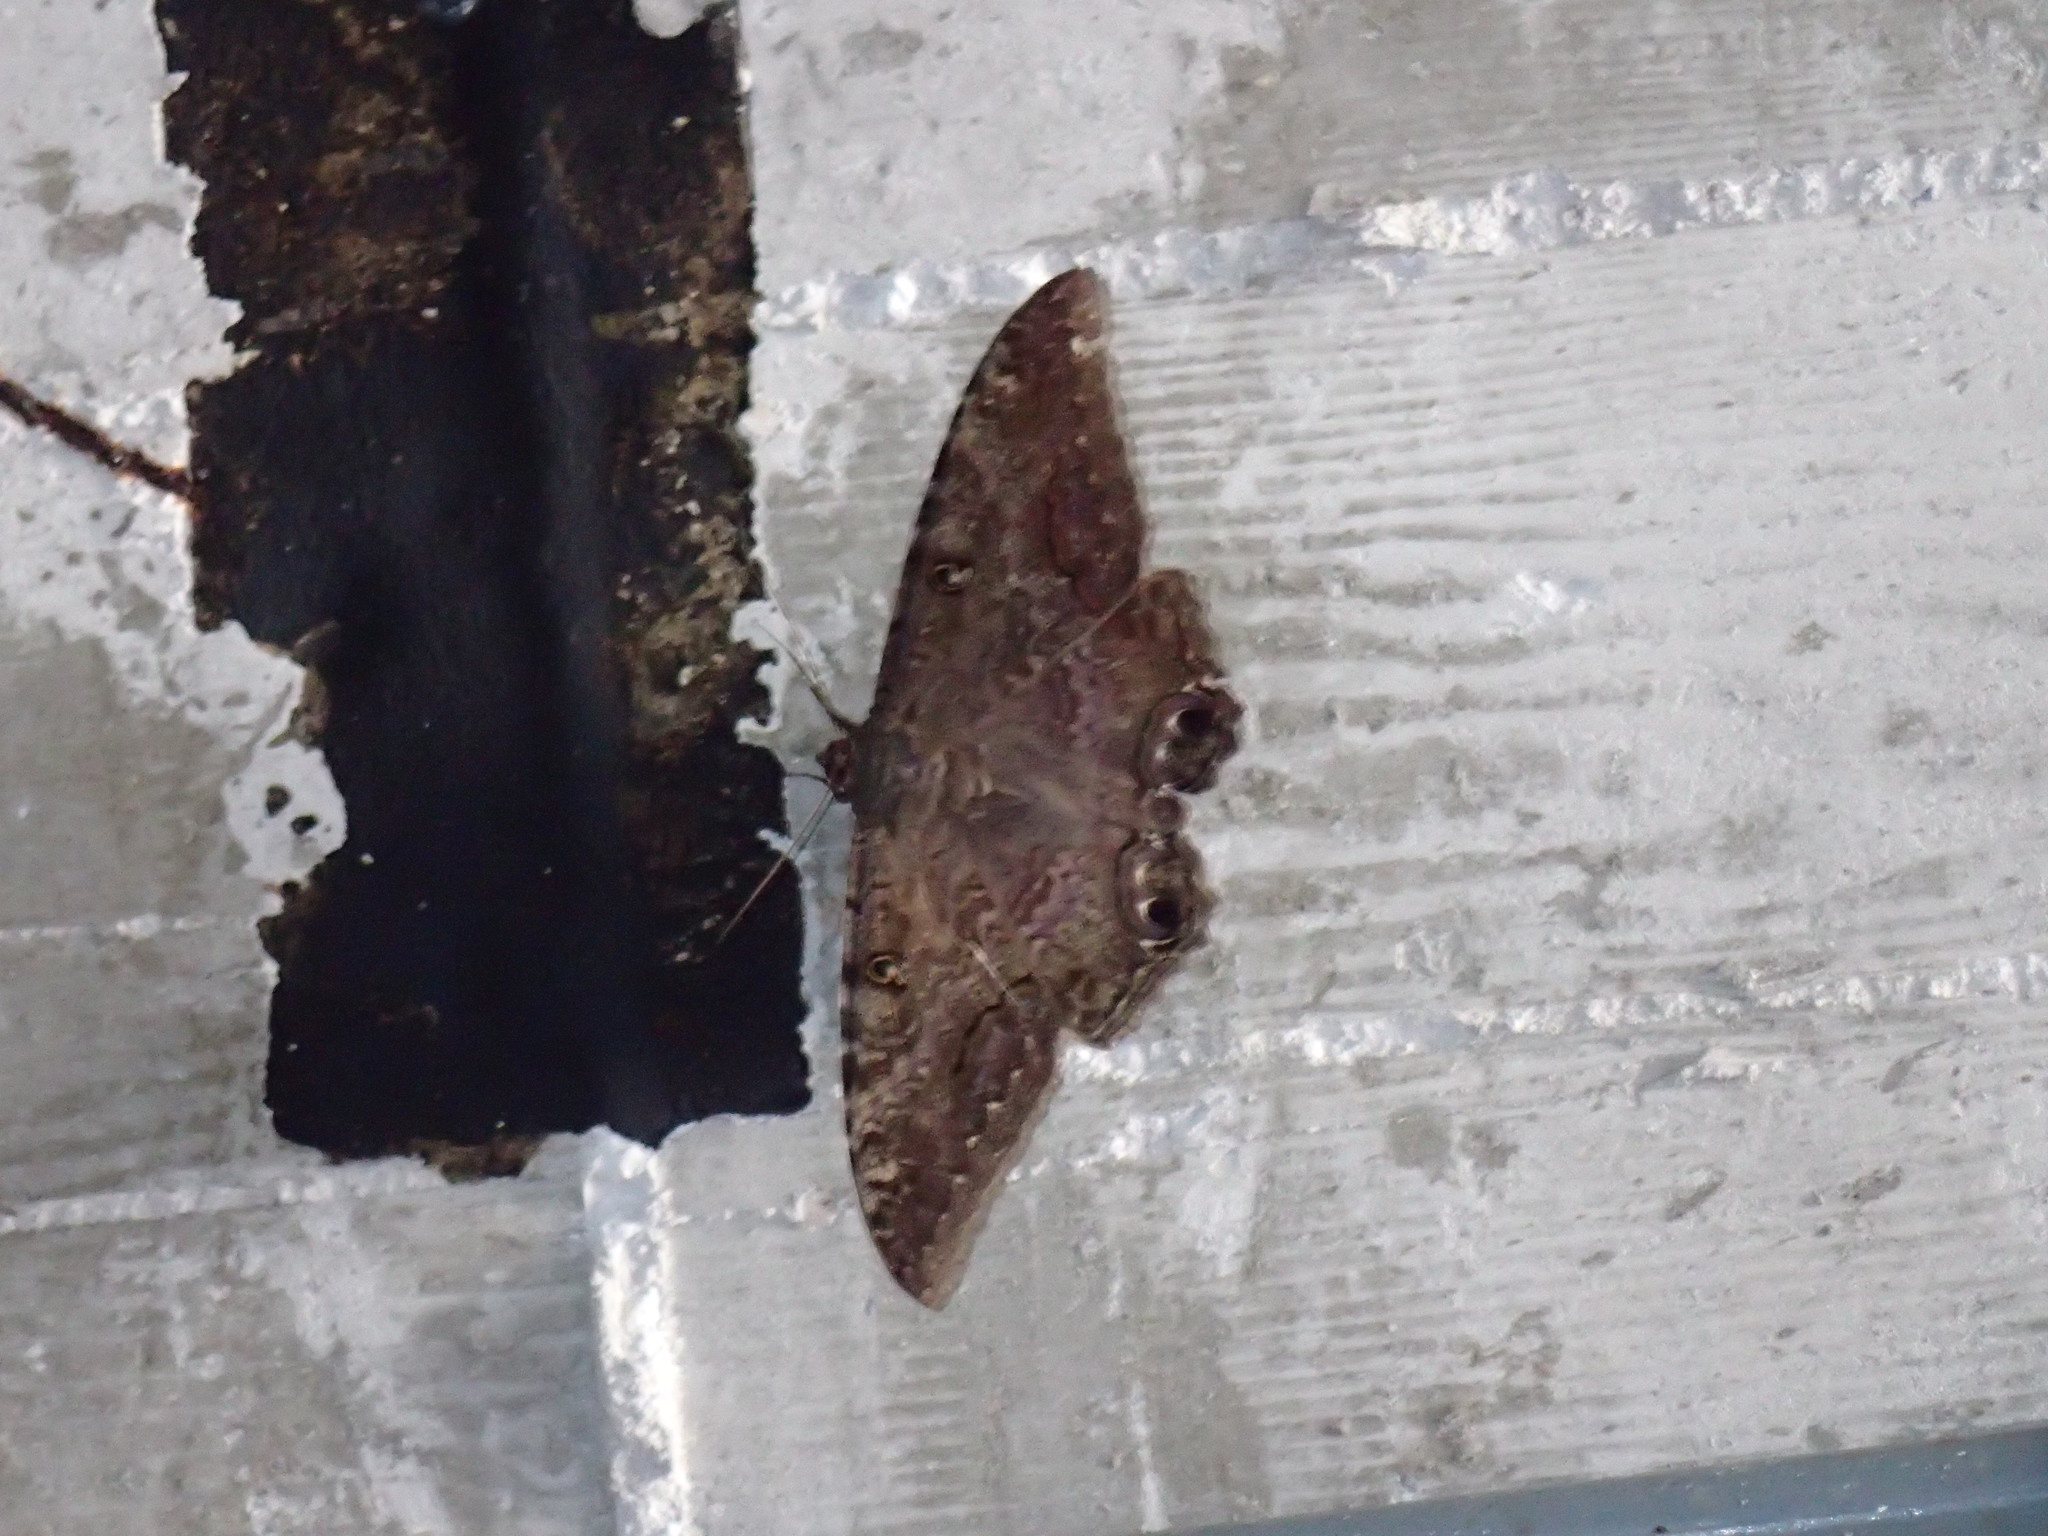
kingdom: Animalia
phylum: Arthropoda
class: Insecta
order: Lepidoptera
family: Erebidae
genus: Ascalapha
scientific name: Ascalapha odorata
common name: Black witch
